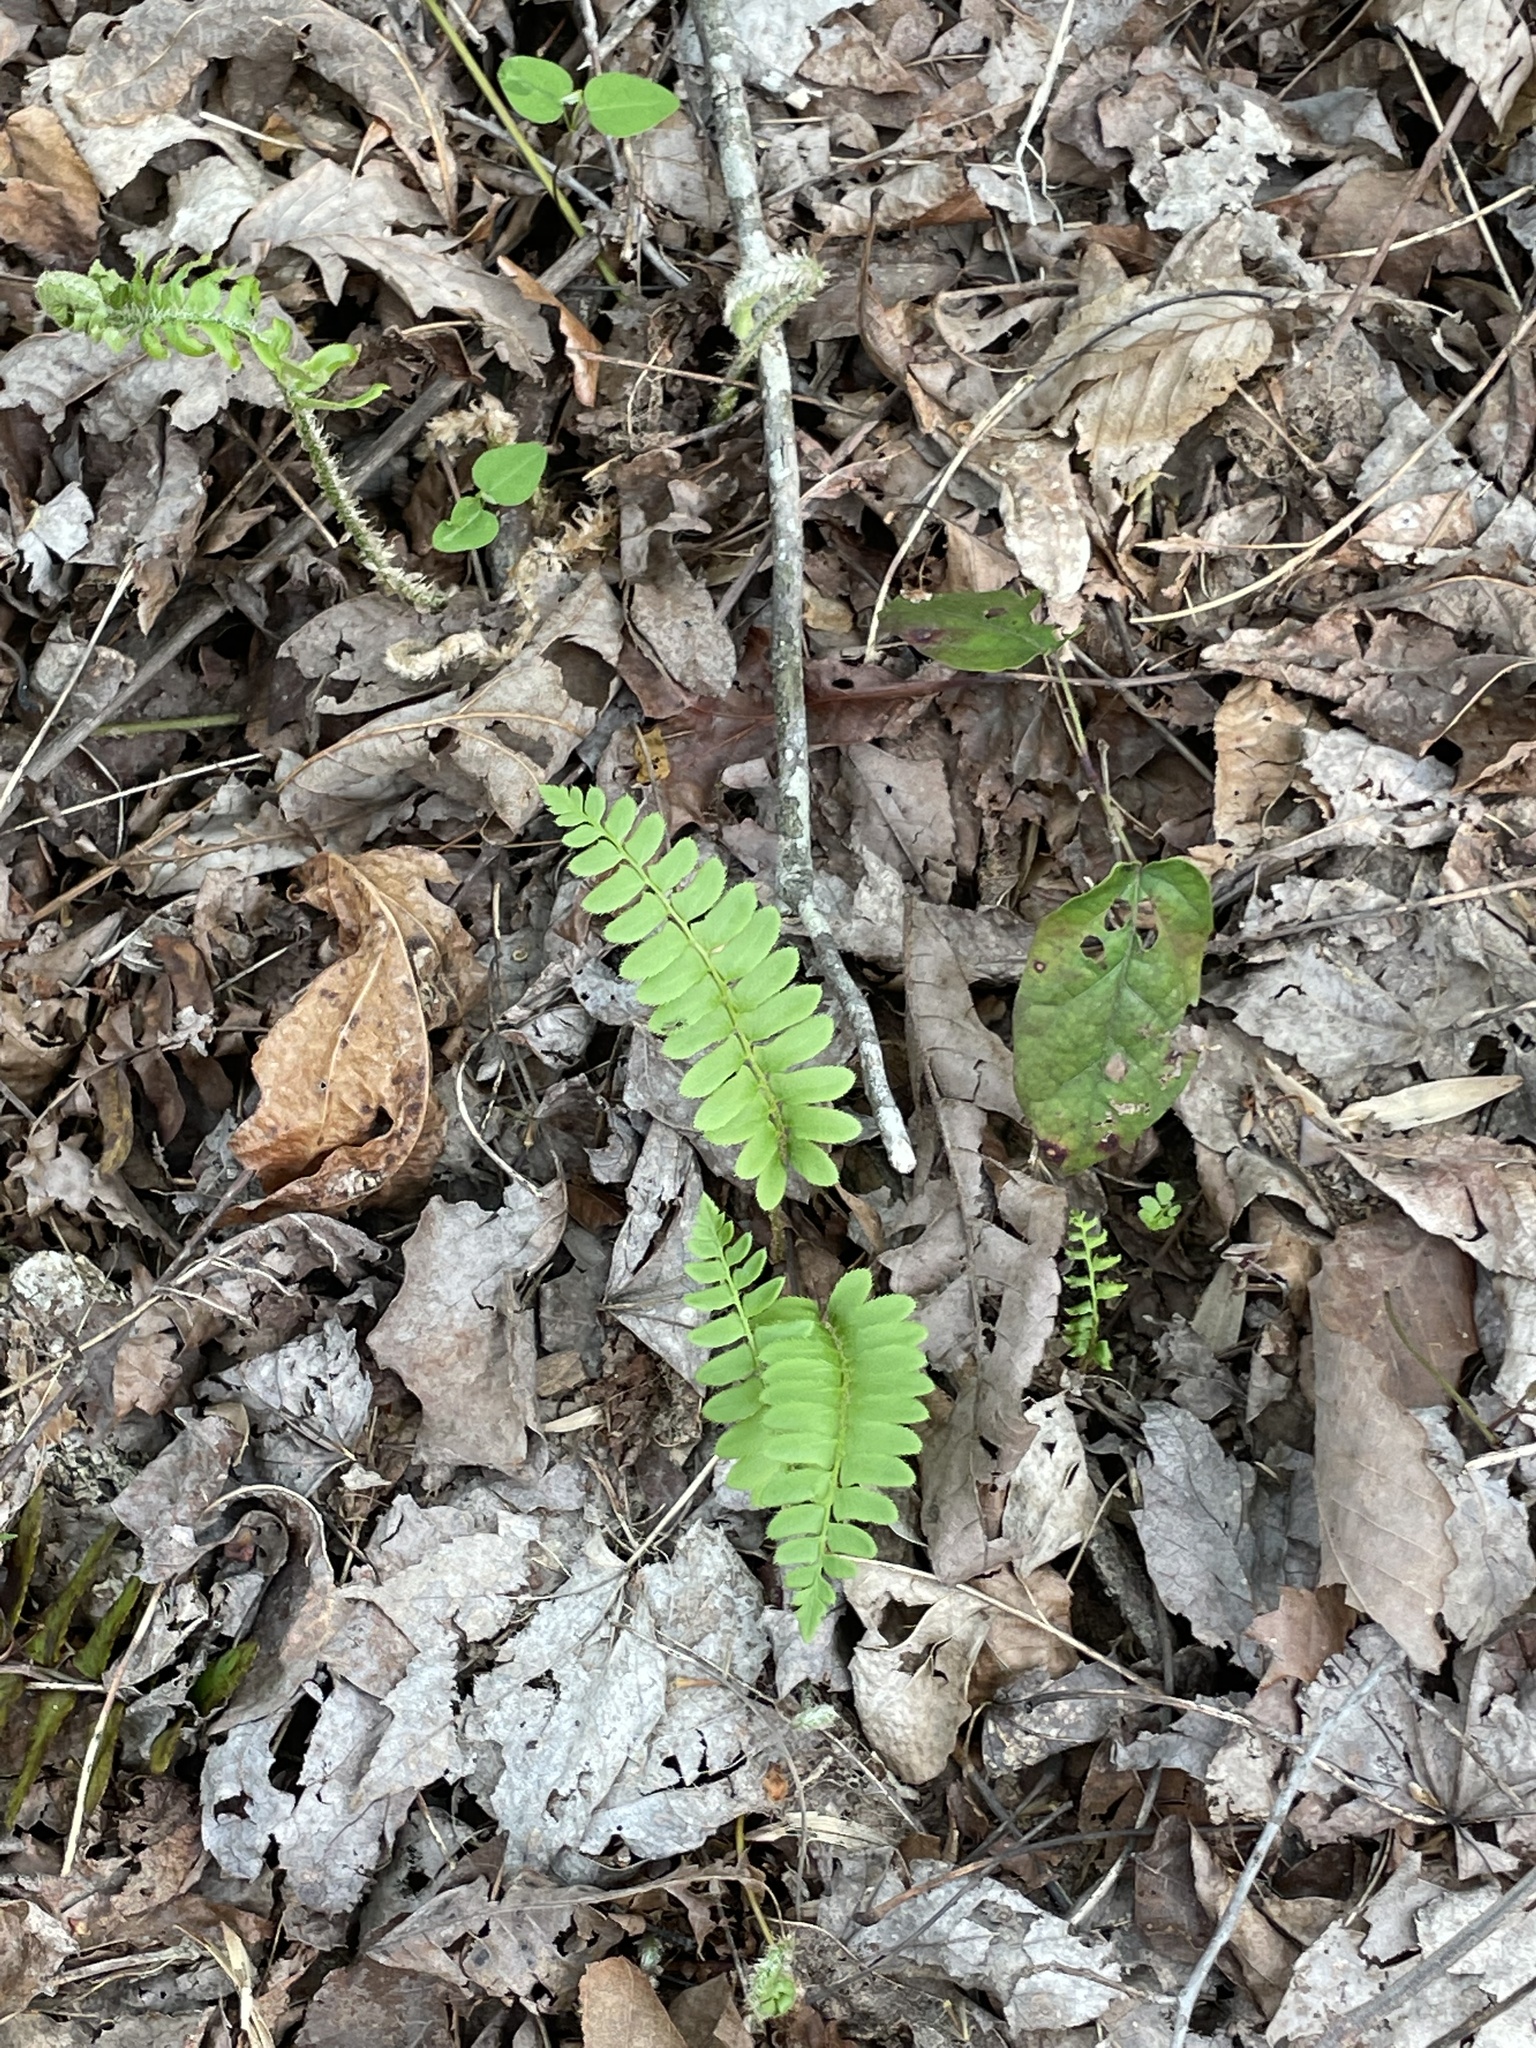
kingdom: Plantae
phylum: Tracheophyta
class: Polypodiopsida
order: Polypodiales
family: Dryopteridaceae
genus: Polystichum
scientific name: Polystichum acrostichoides
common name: Christmas fern
